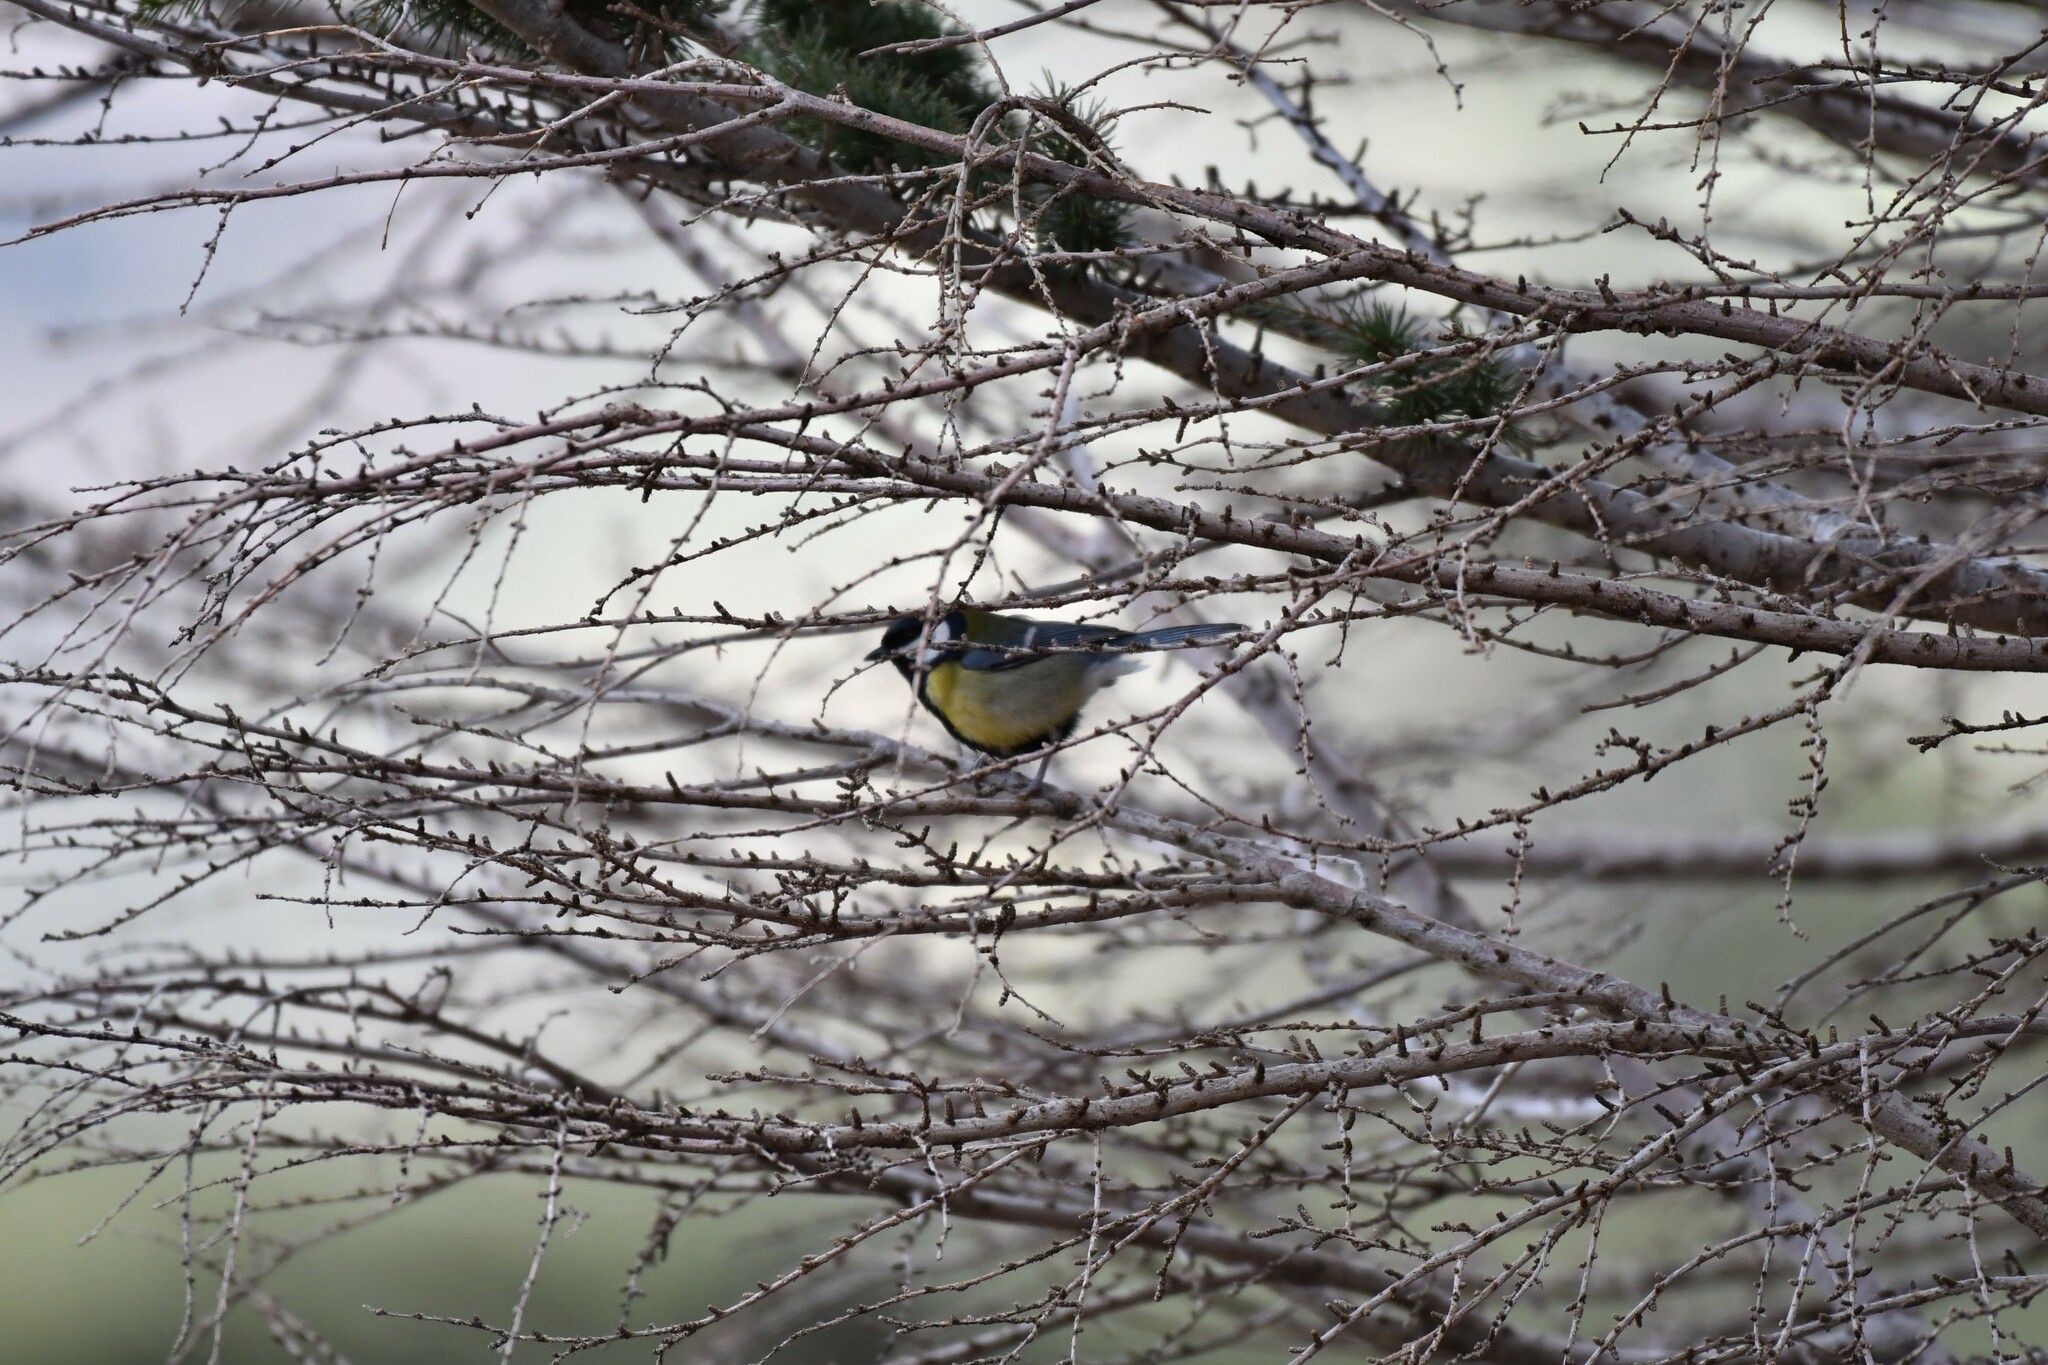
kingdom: Animalia
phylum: Chordata
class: Aves
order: Passeriformes
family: Paridae
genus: Parus
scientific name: Parus major
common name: Great tit
